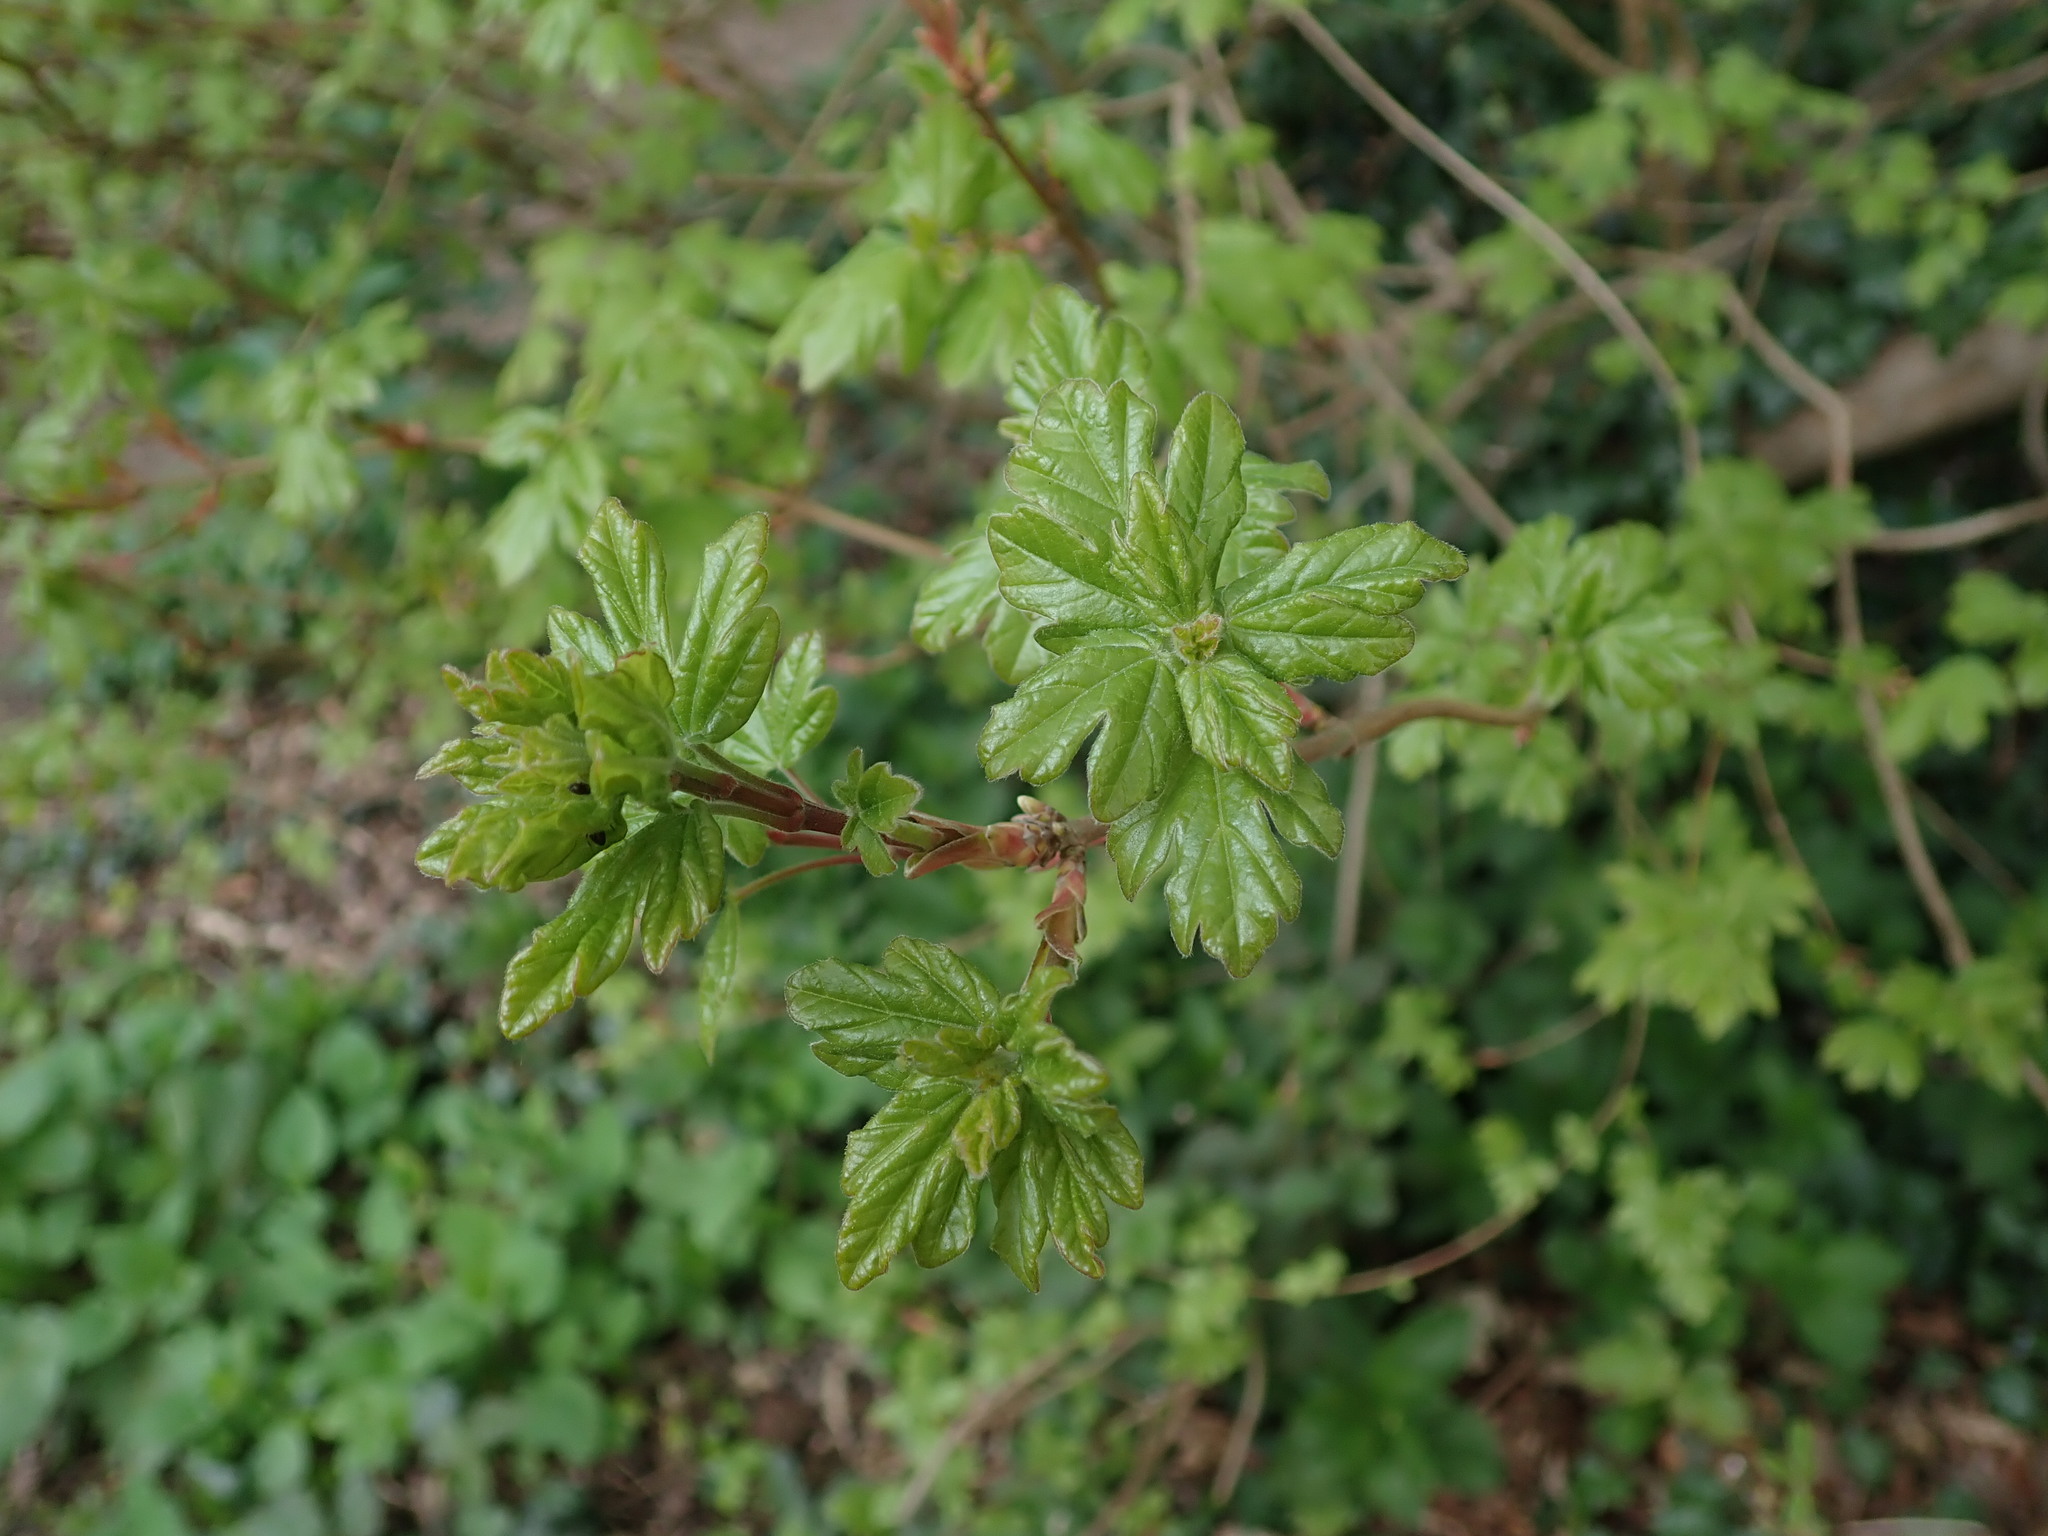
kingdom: Plantae
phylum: Tracheophyta
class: Magnoliopsida
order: Sapindales
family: Sapindaceae
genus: Acer
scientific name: Acer campestre
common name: Field maple
